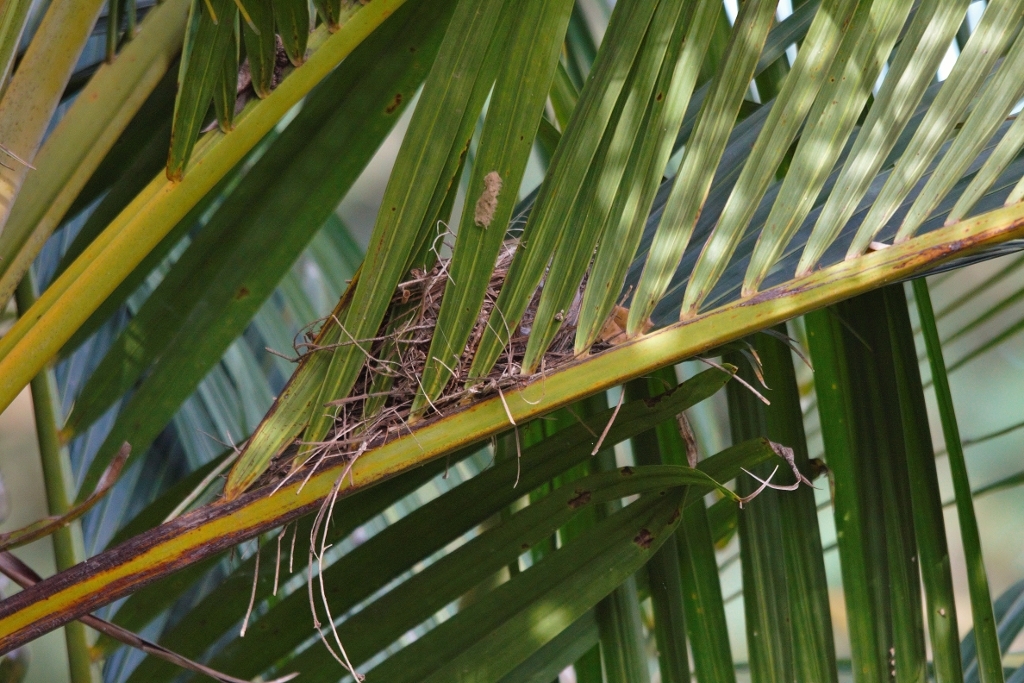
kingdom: Animalia
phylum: Chordata
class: Aves
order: Passeriformes
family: Pycnonotidae
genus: Pycnonotus
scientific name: Pycnonotus barbatus
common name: Common bulbul
